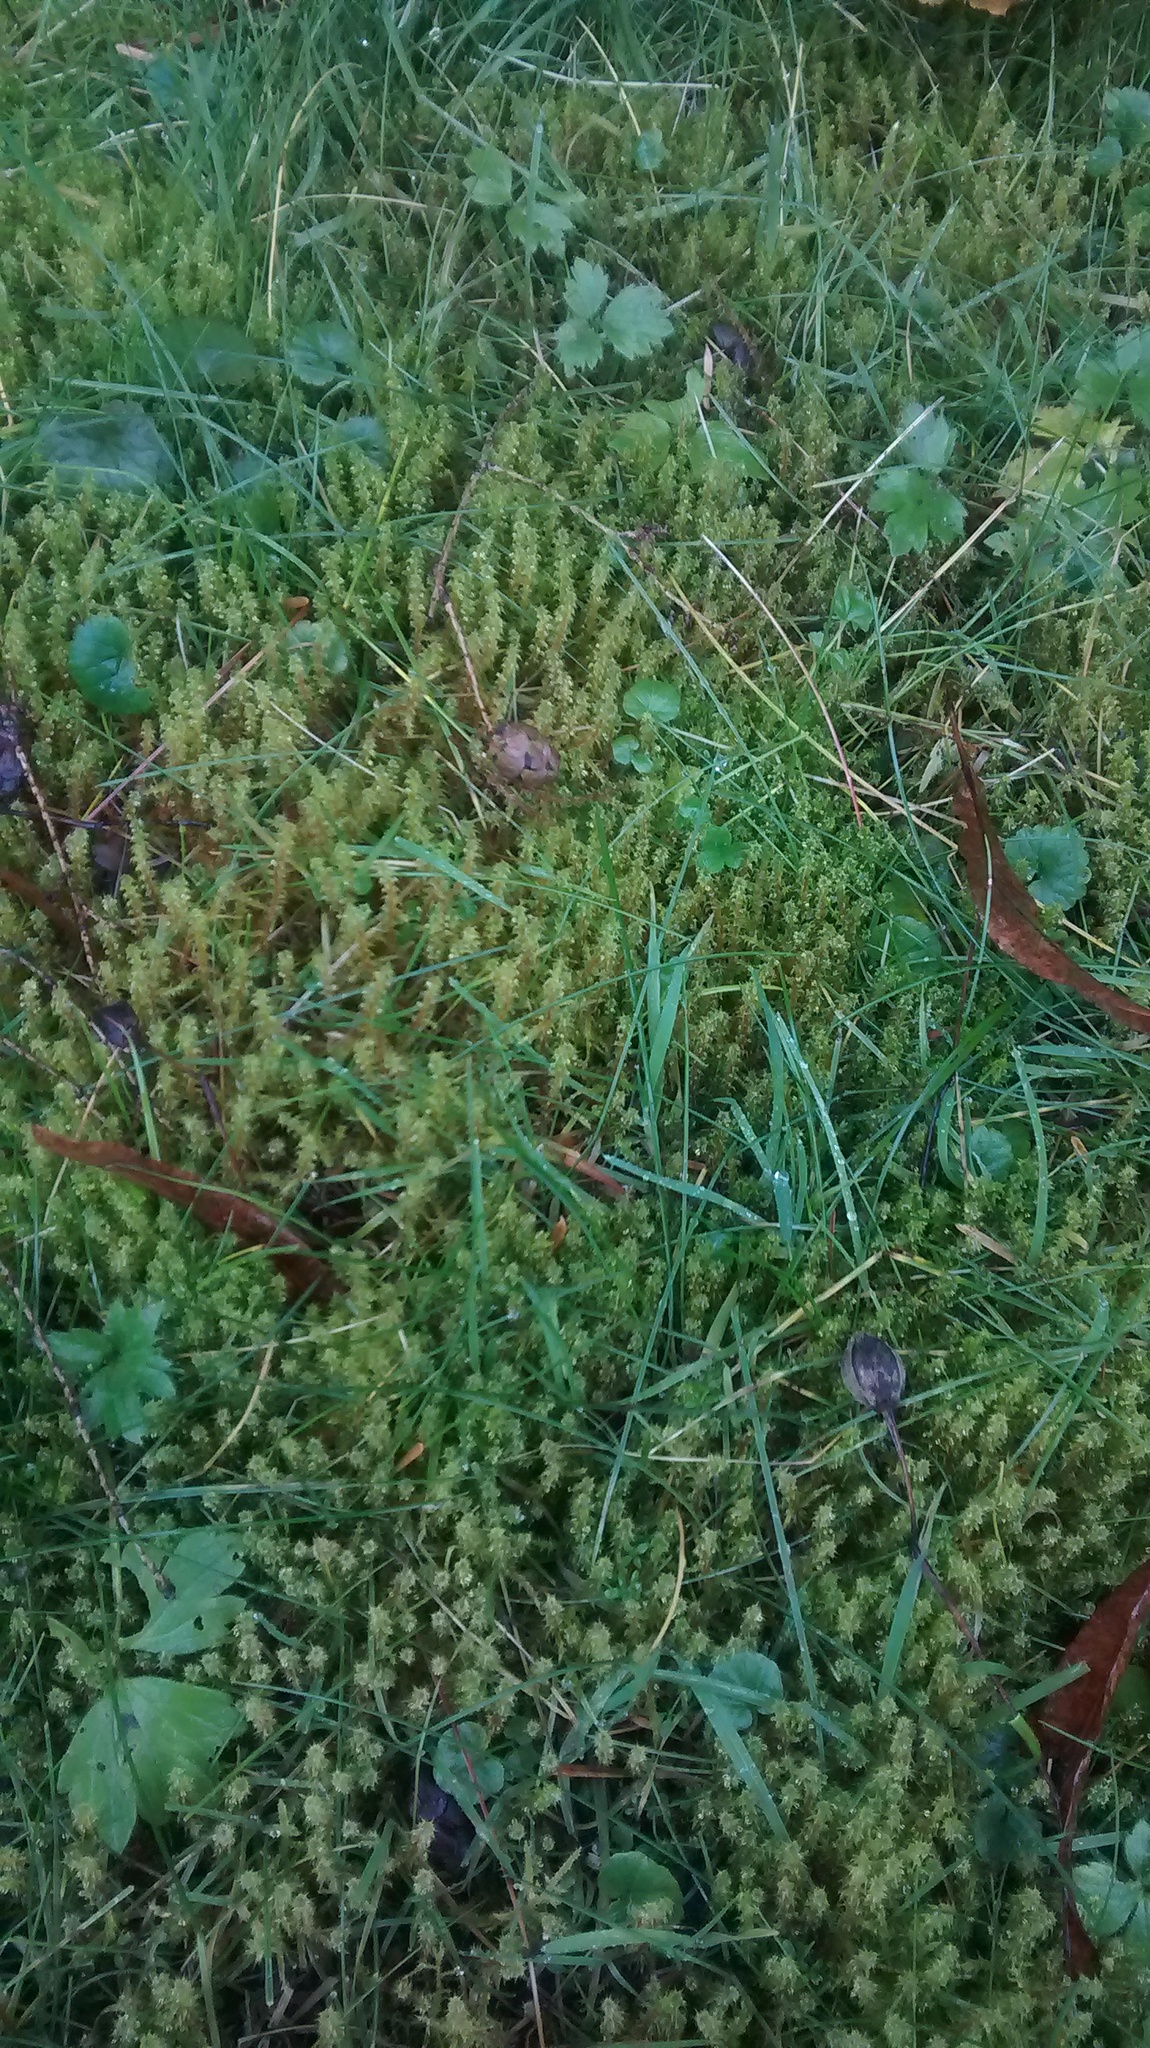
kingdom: Plantae
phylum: Bryophyta
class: Bryopsida
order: Hypnales
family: Hylocomiaceae
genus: Rhytidiadelphus
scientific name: Rhytidiadelphus squarrosus
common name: Springy turf-moss
